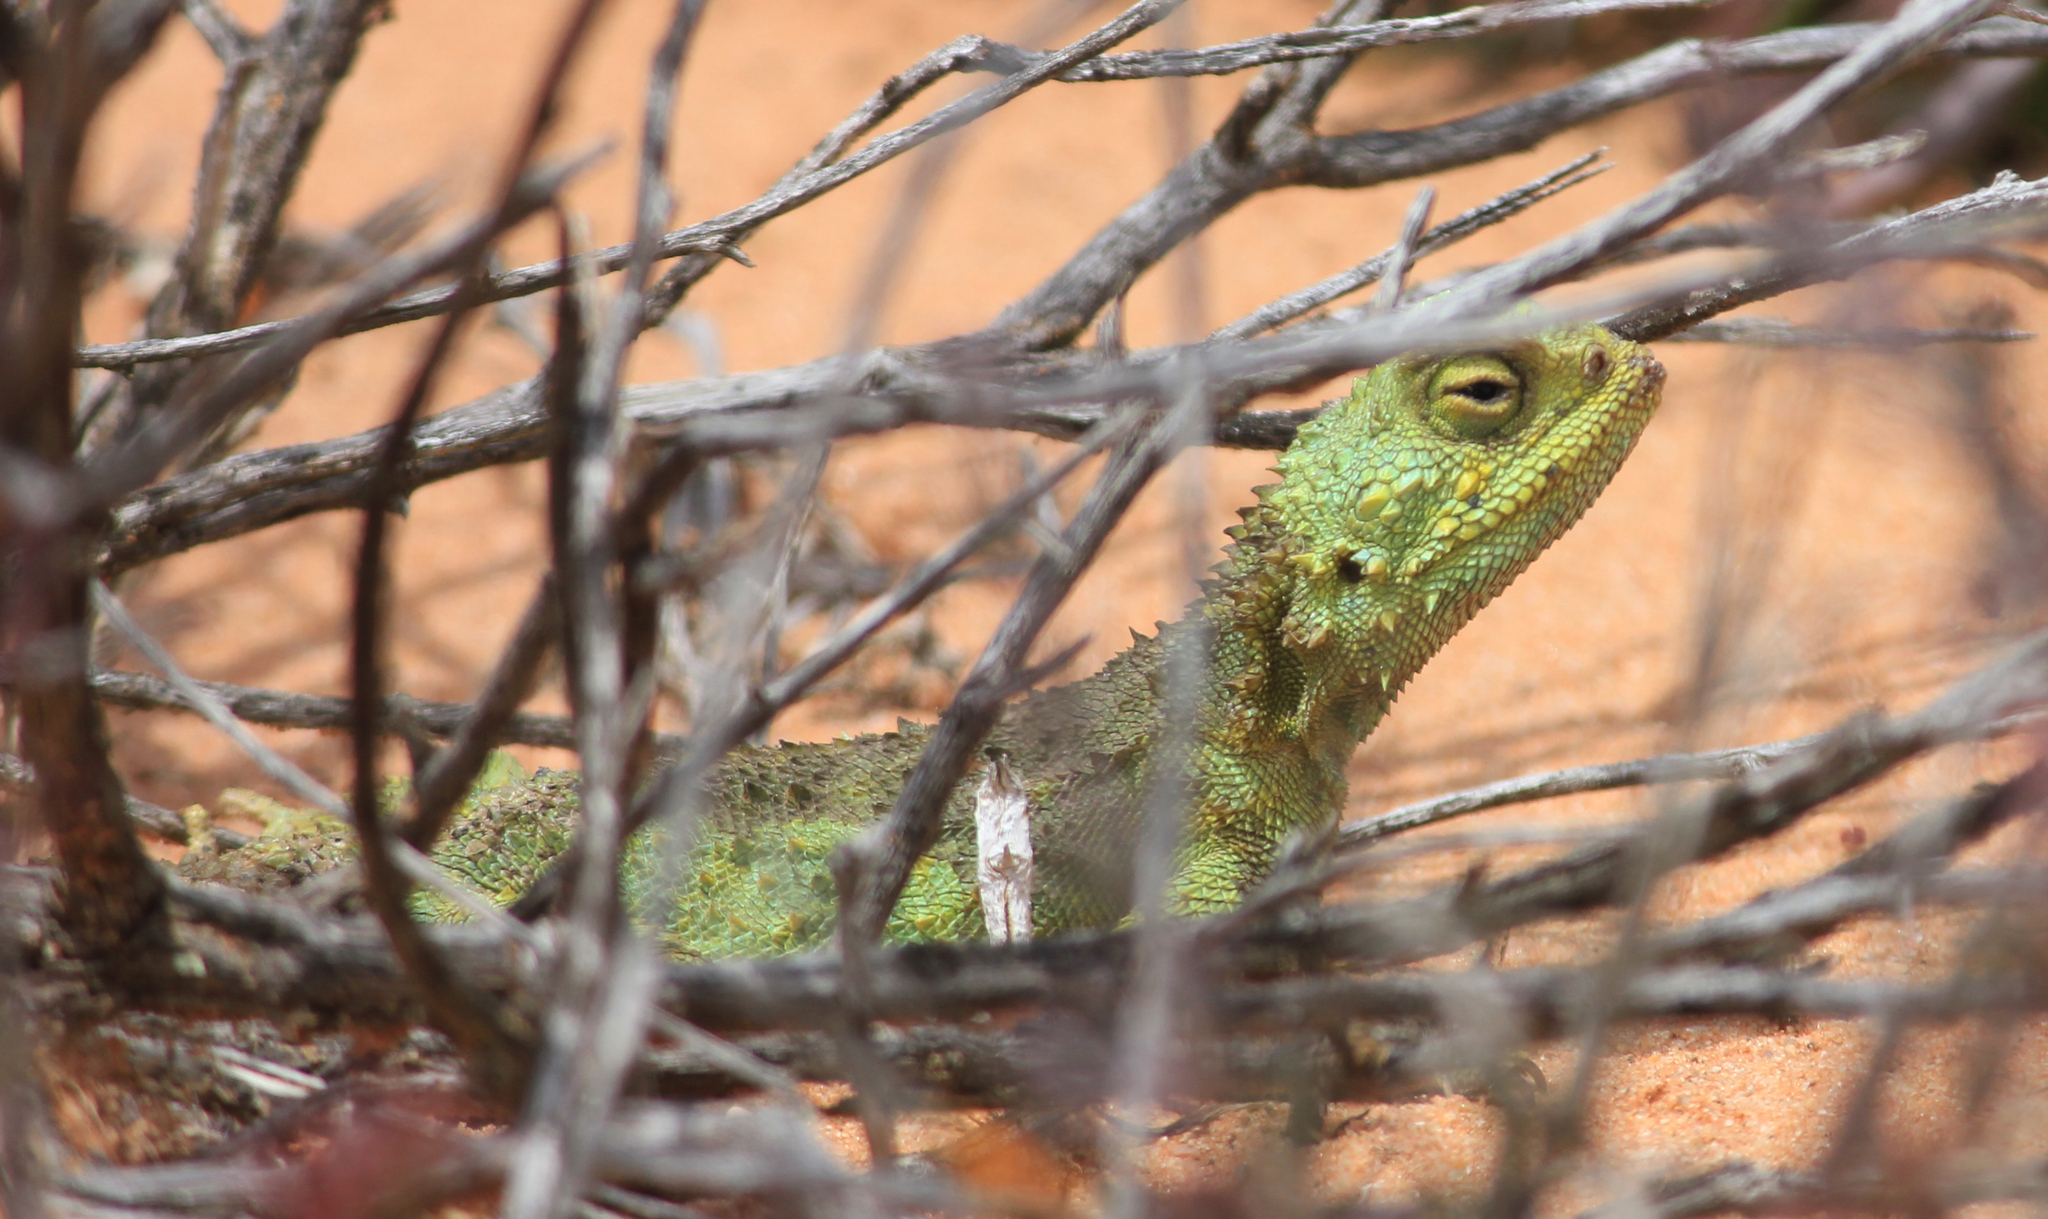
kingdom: Animalia
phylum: Chordata
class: Squamata
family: Agamidae
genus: Agama
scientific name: Agama hispida
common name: Common spiny agama
